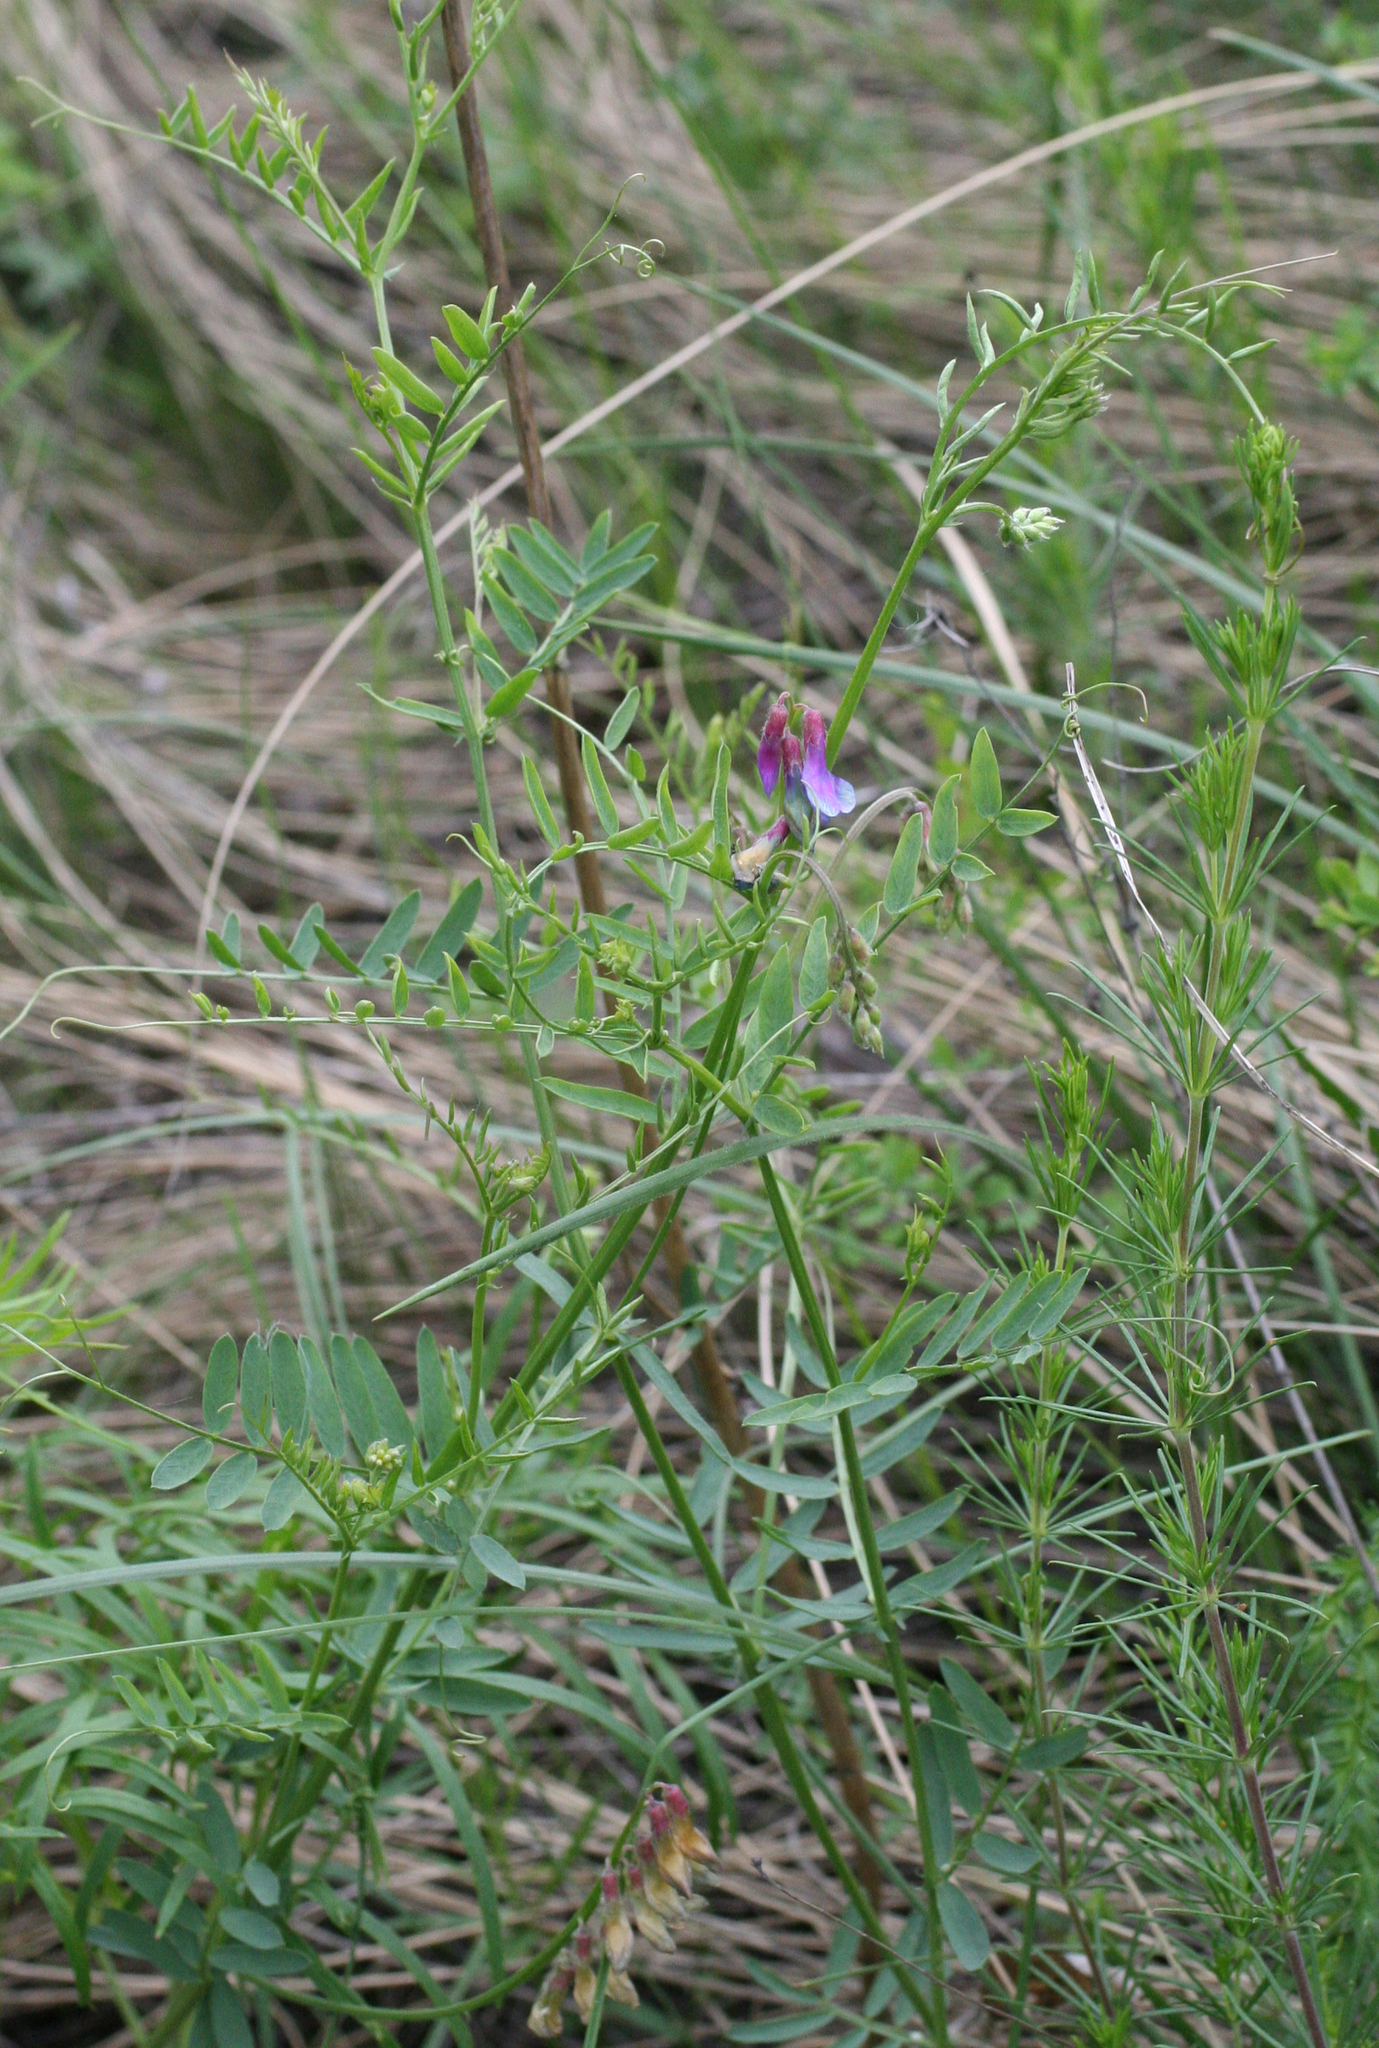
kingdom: Plantae
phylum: Tracheophyta
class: Magnoliopsida
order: Fabales
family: Fabaceae
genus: Vicia
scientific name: Vicia multicaulis
